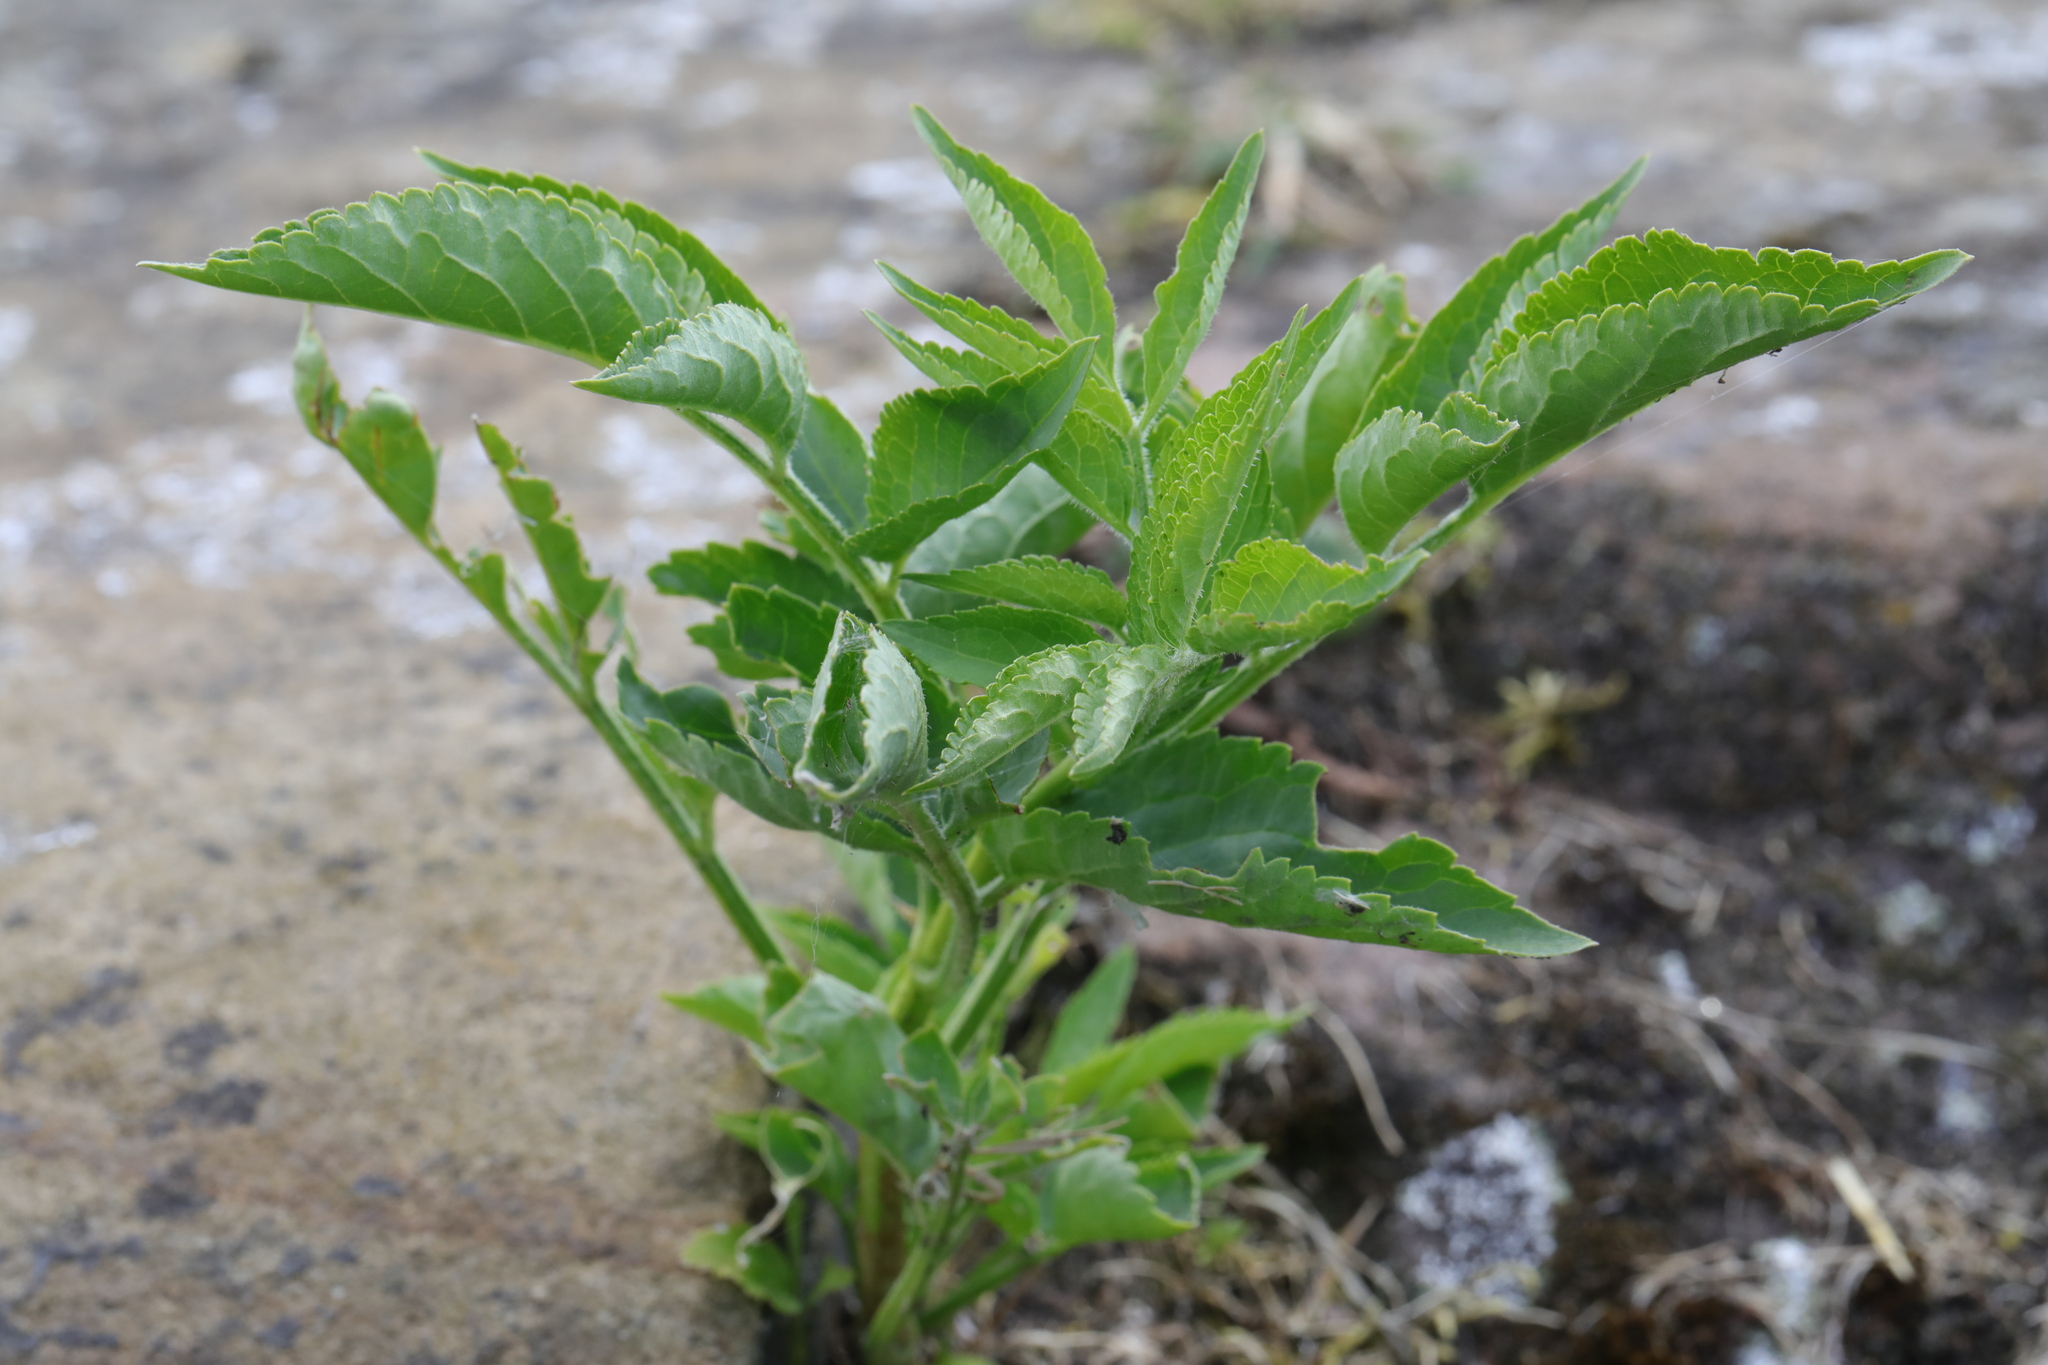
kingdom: Plantae
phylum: Tracheophyta
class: Magnoliopsida
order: Dipsacales
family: Viburnaceae
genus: Sambucus
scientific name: Sambucus nigra
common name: Elder
